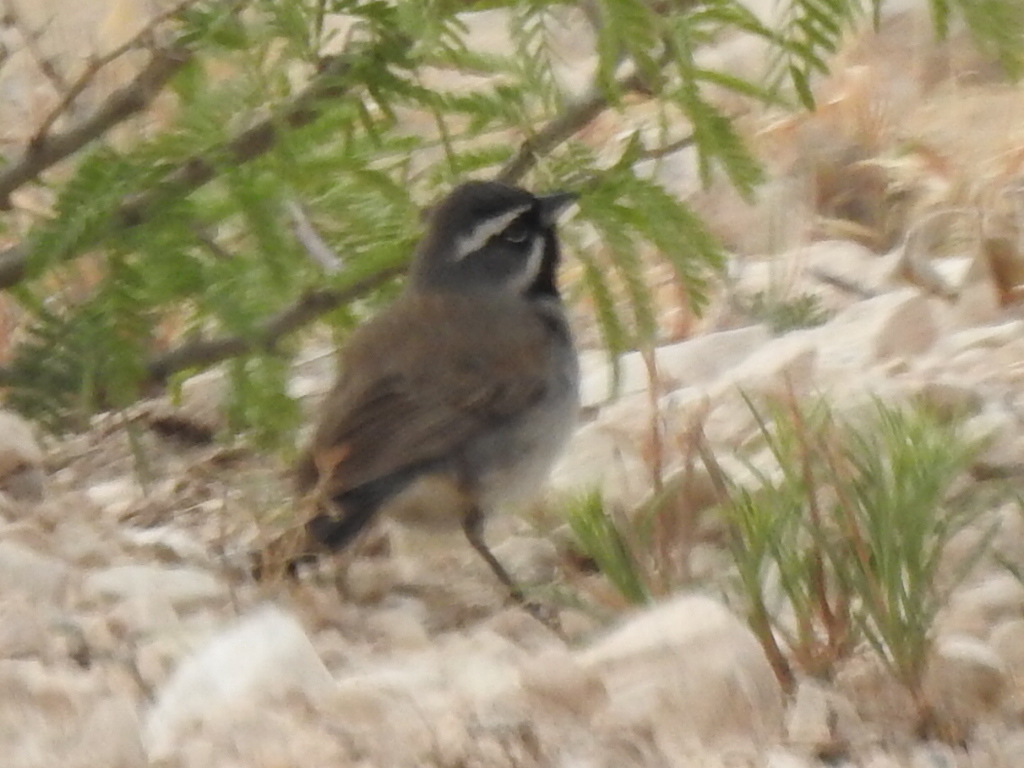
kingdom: Animalia
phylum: Chordata
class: Aves
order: Passeriformes
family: Passerellidae
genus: Amphispiza
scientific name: Amphispiza bilineata
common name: Black-throated sparrow
